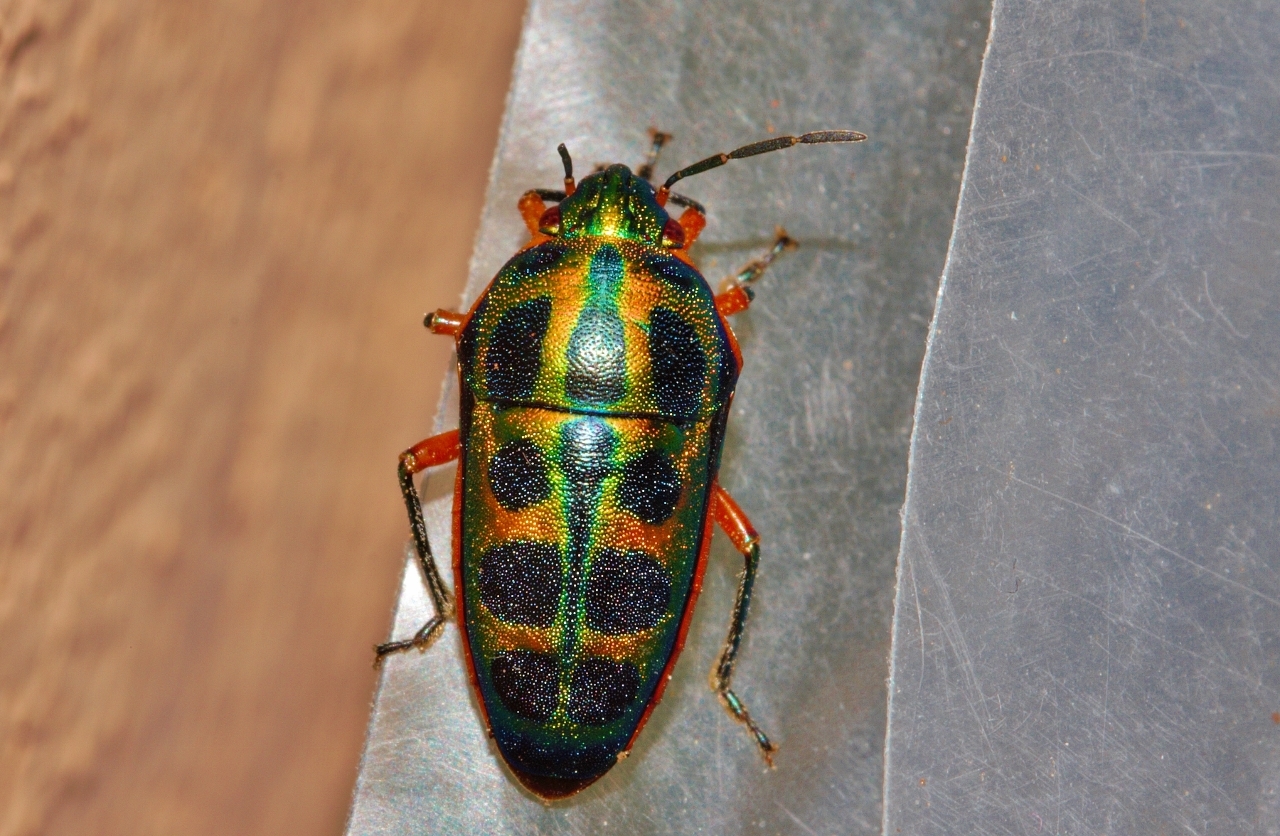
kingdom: Animalia
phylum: Arthropoda
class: Insecta
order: Hemiptera
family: Scutelleridae
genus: Calidea
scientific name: Calidea dregii
